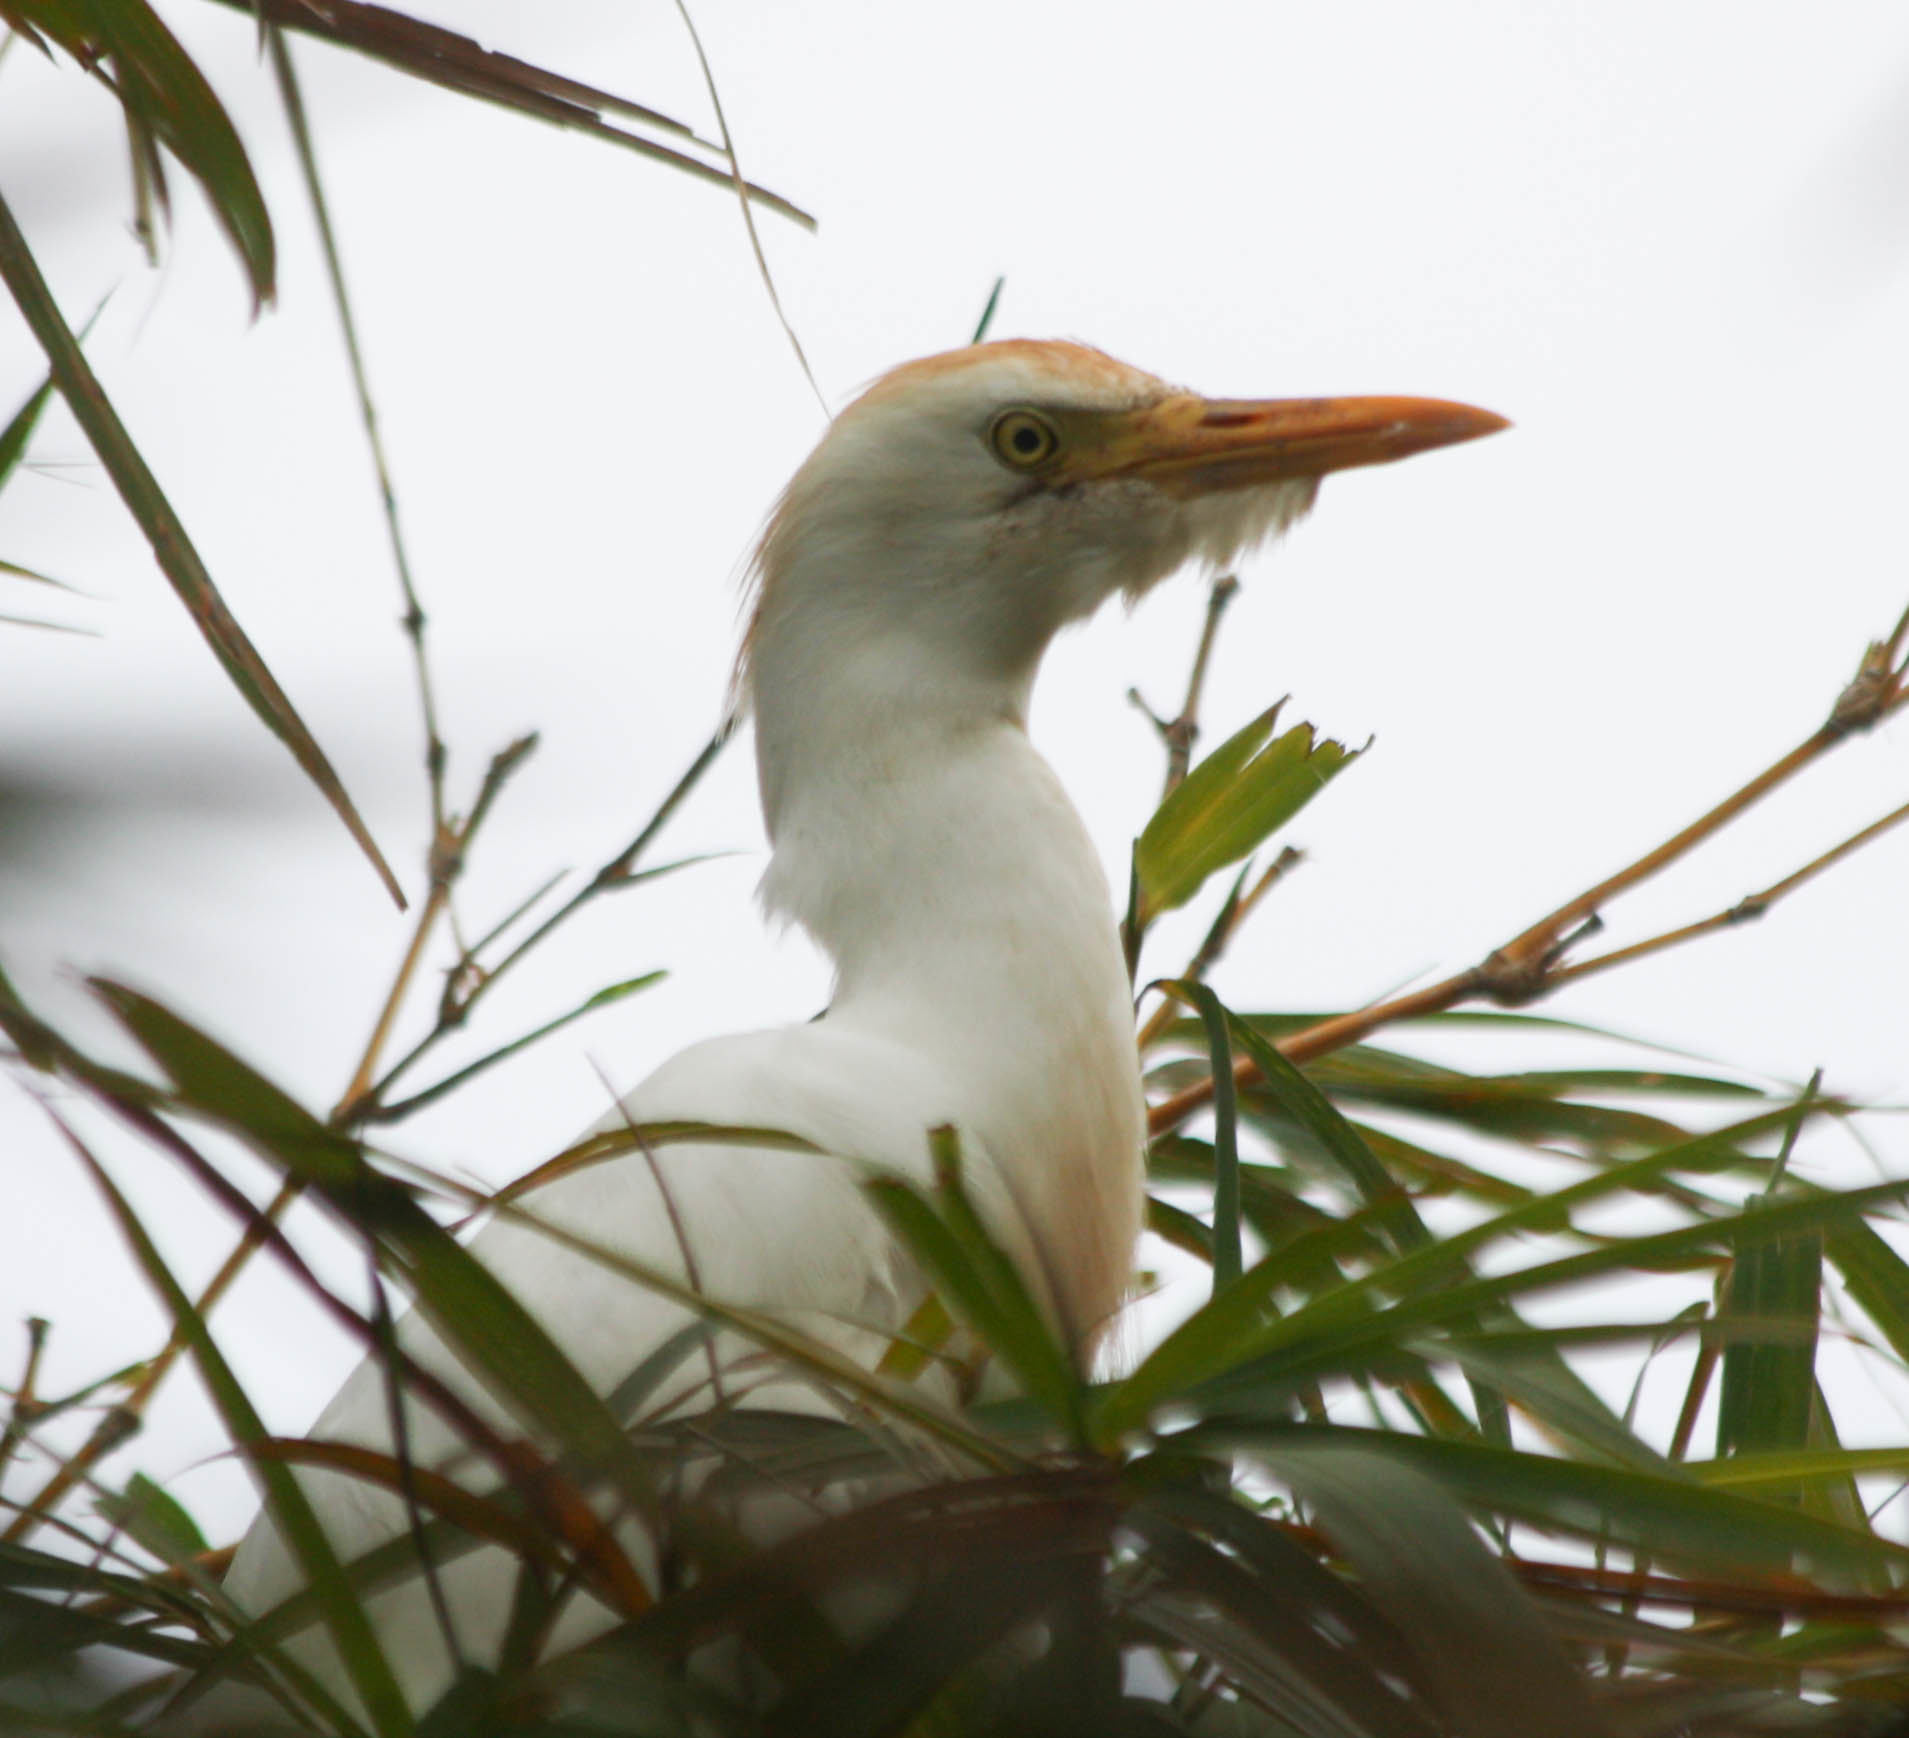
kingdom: Animalia
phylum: Chordata
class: Aves
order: Pelecaniformes
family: Ardeidae
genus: Bubulcus
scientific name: Bubulcus ibis
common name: Cattle egret
